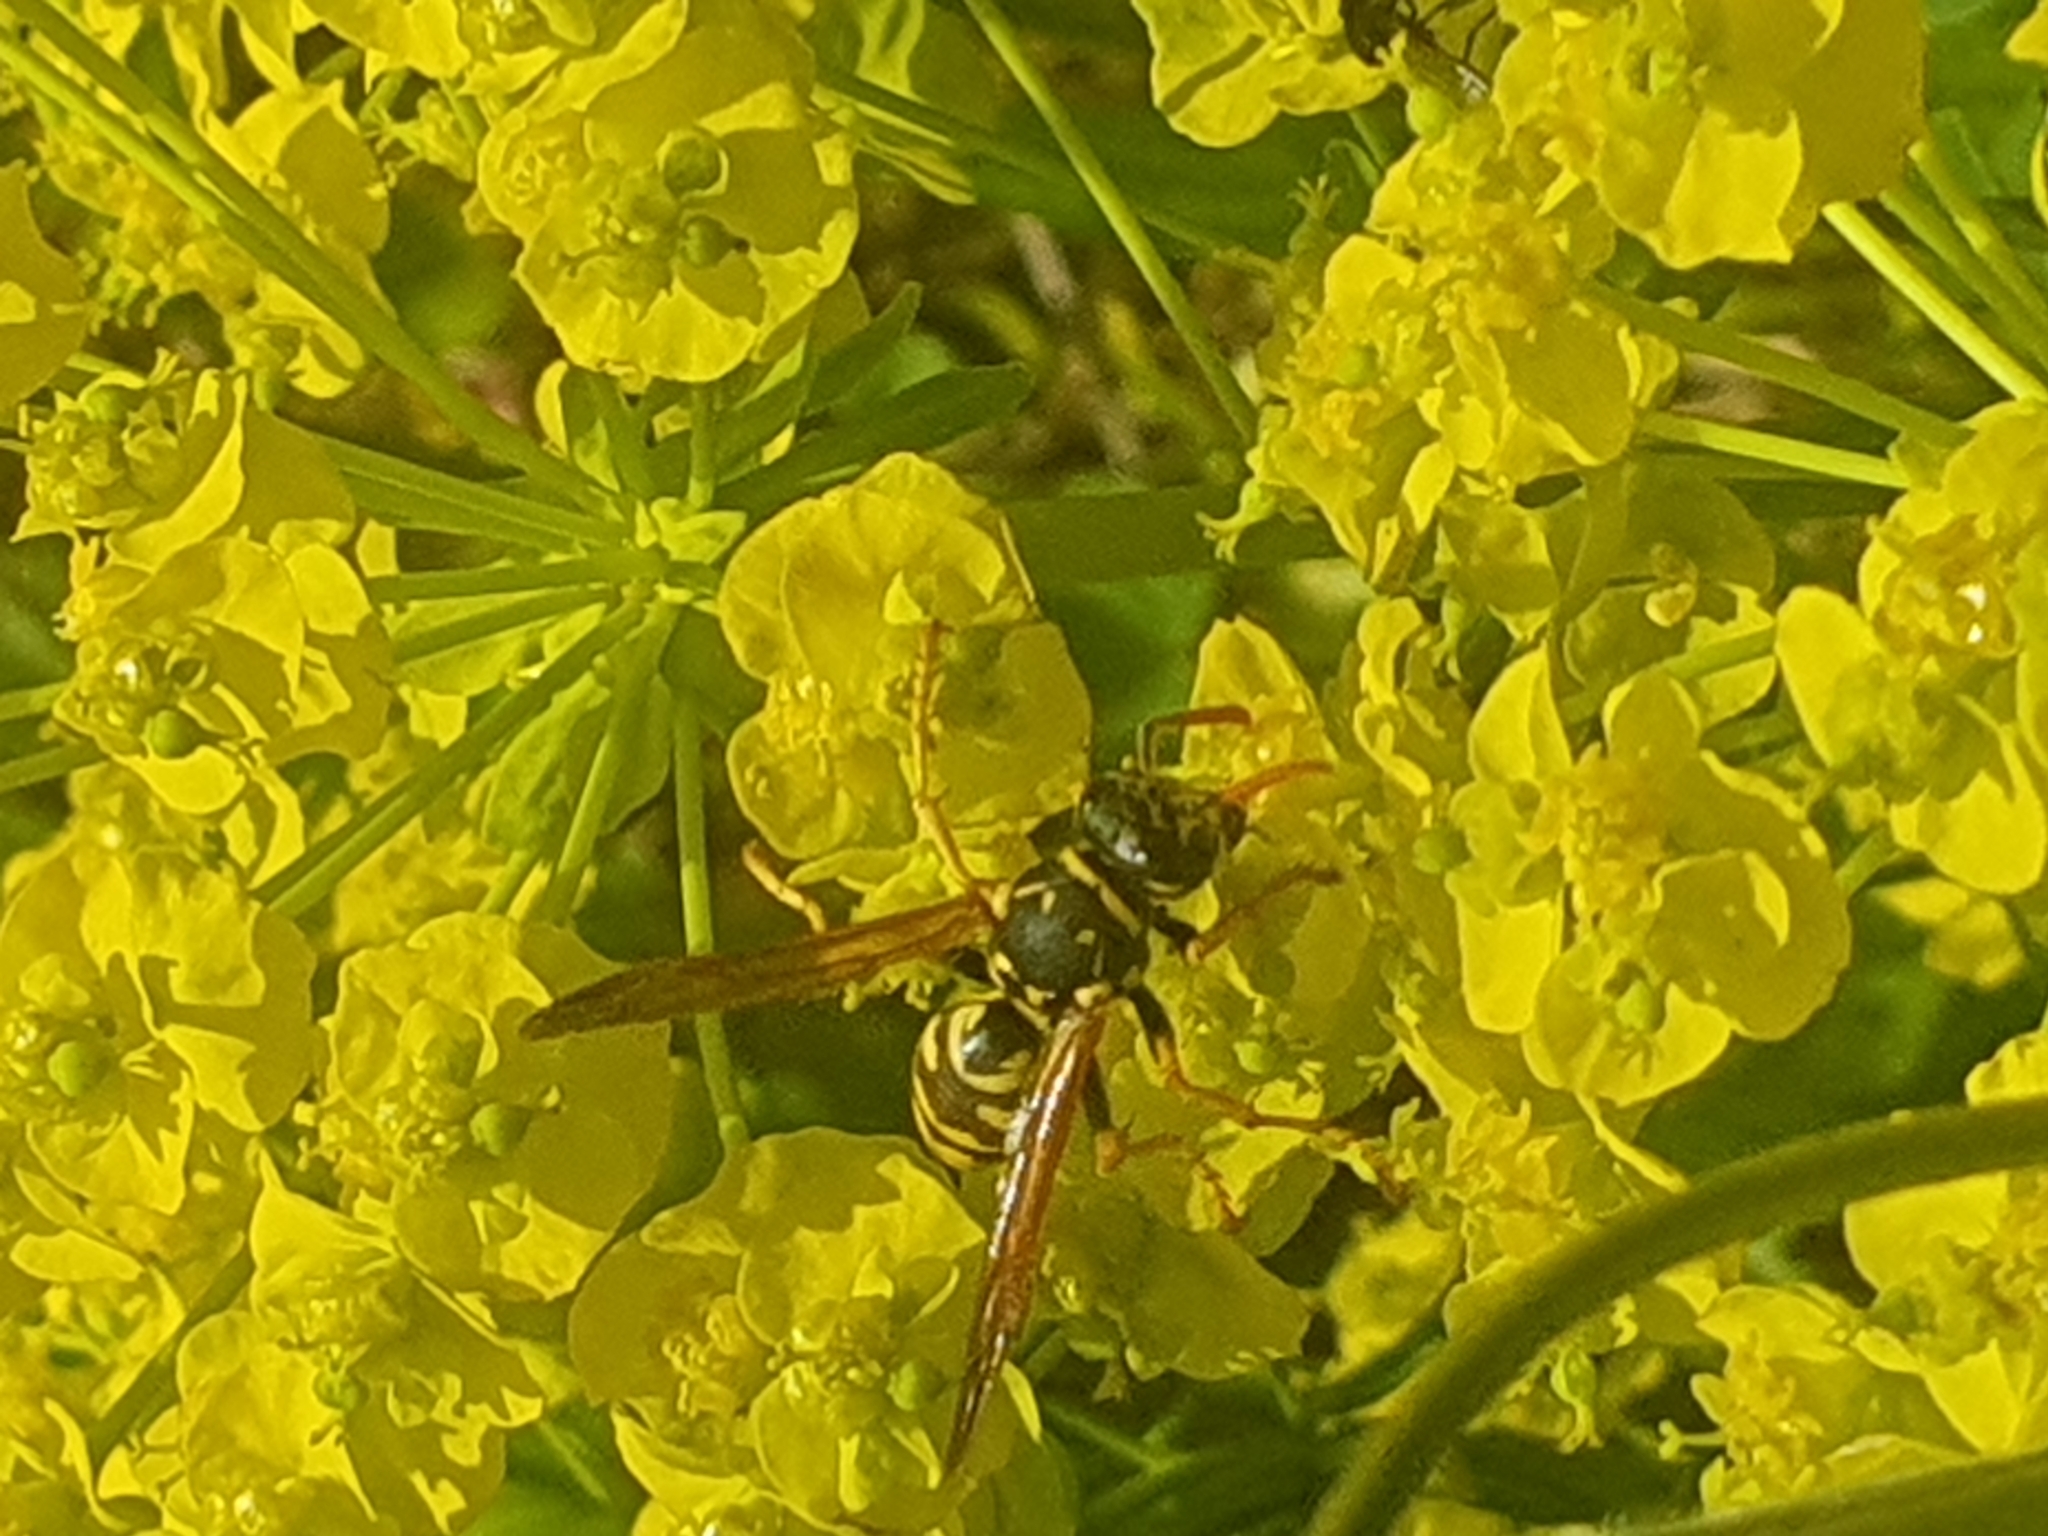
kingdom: Animalia
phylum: Arthropoda
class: Insecta
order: Hymenoptera
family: Eumenidae
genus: Polistes
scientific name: Polistes dominula
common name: Paper wasp
